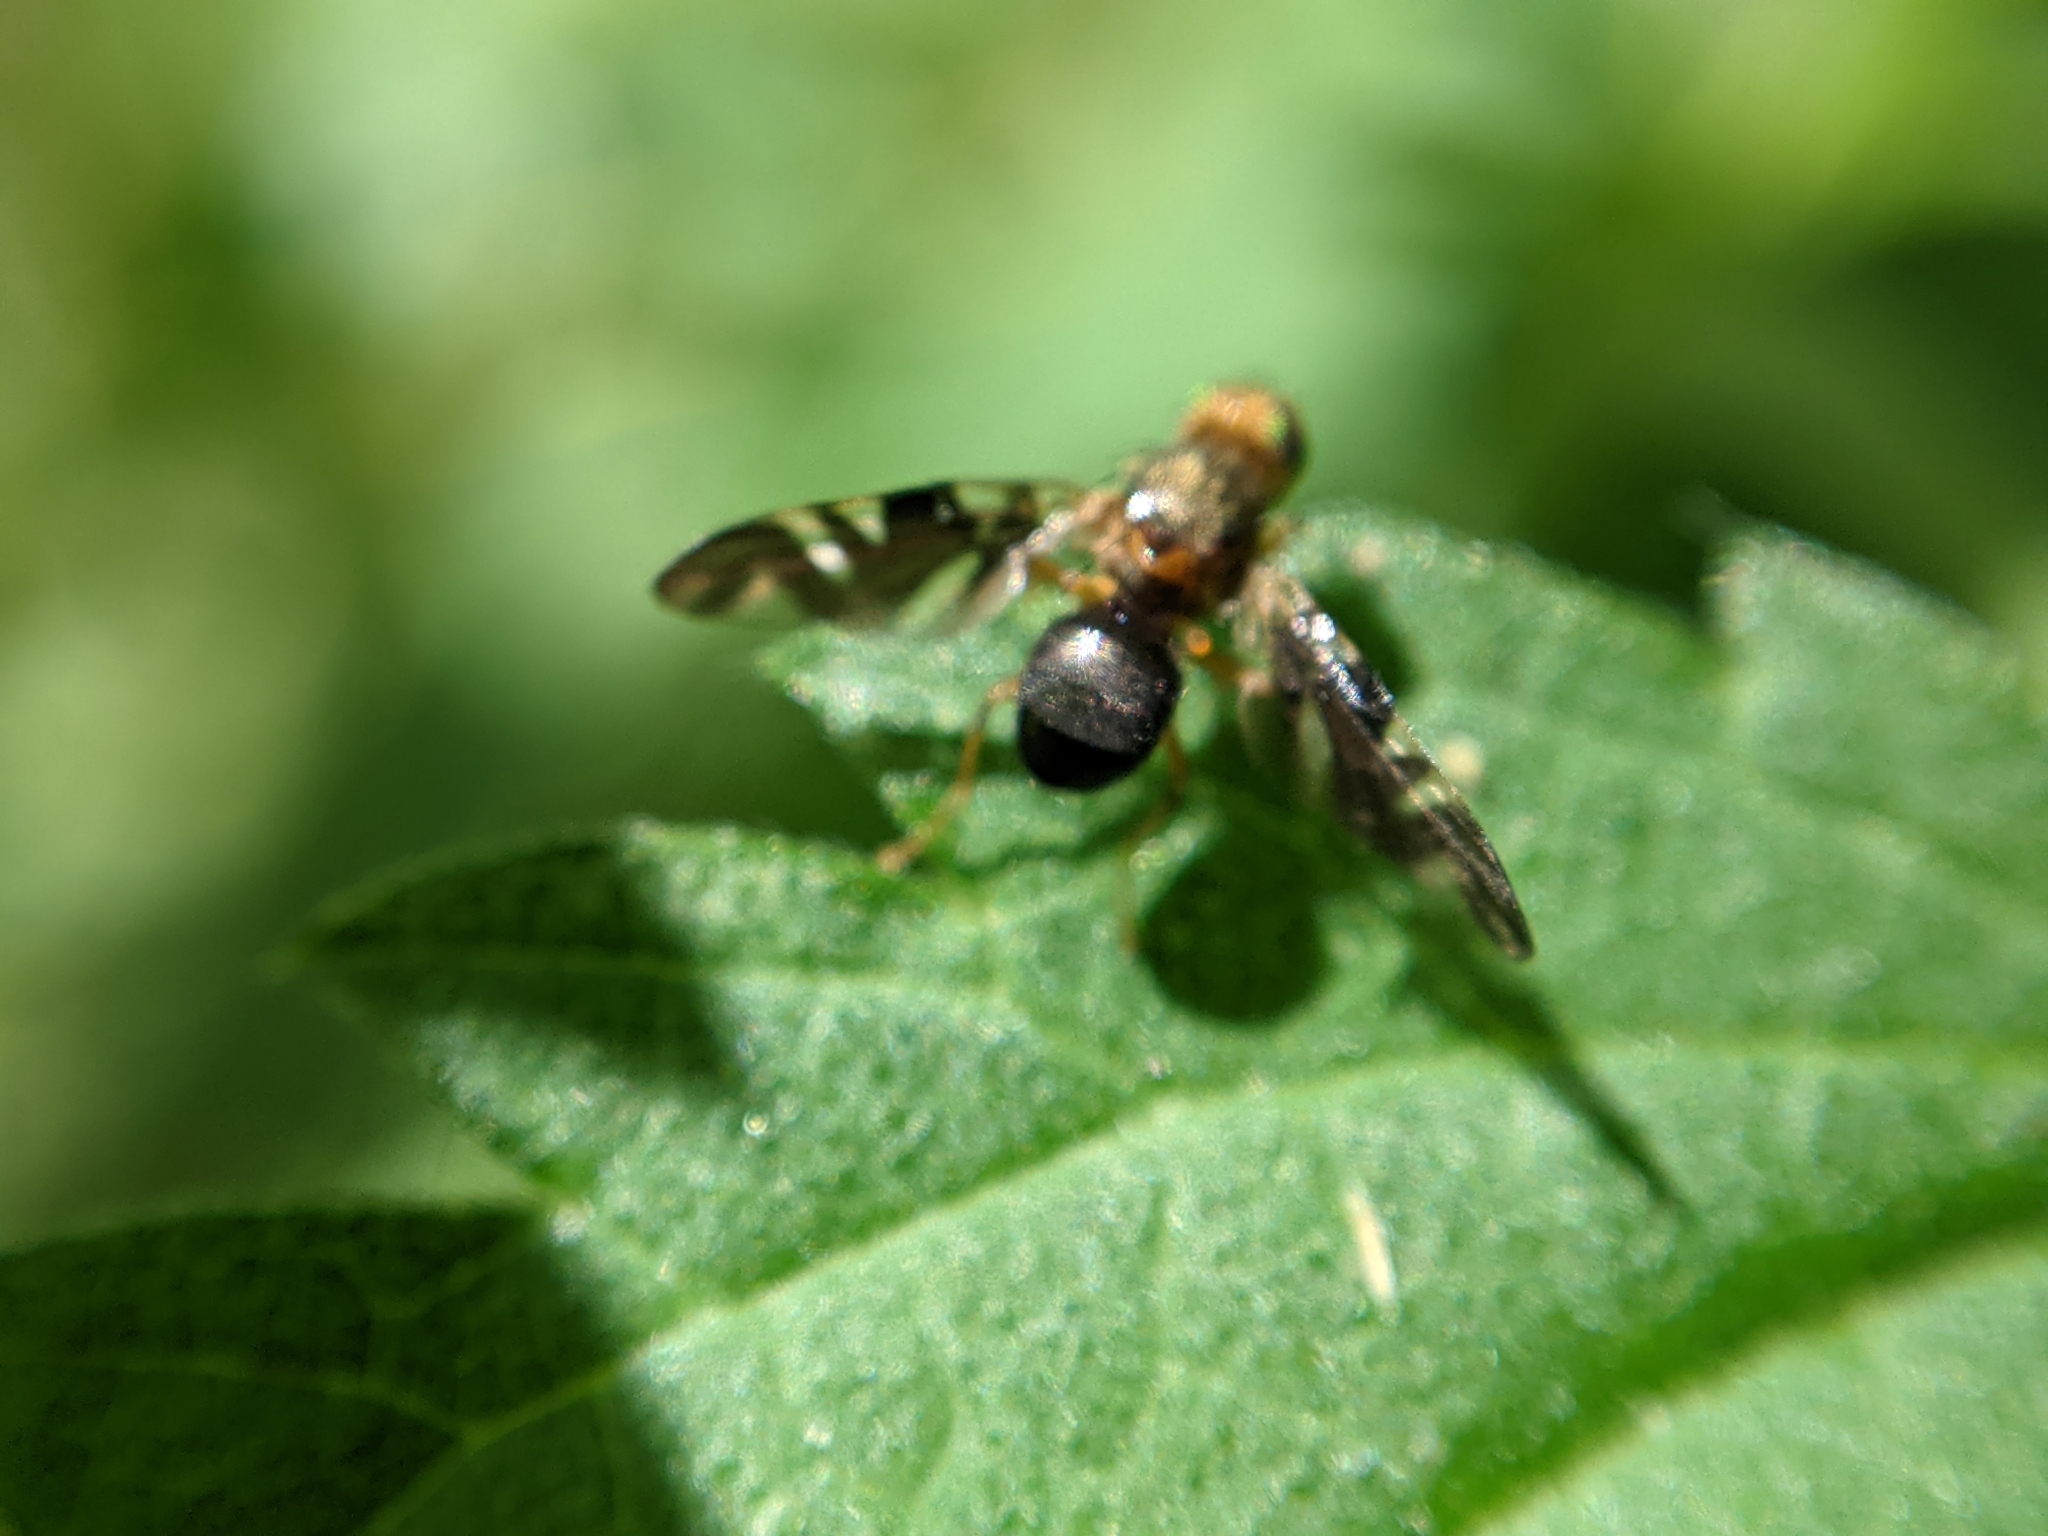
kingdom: Animalia
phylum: Arthropoda
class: Insecta
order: Diptera
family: Tephritidae
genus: Philophylla
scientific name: Philophylla caesio
